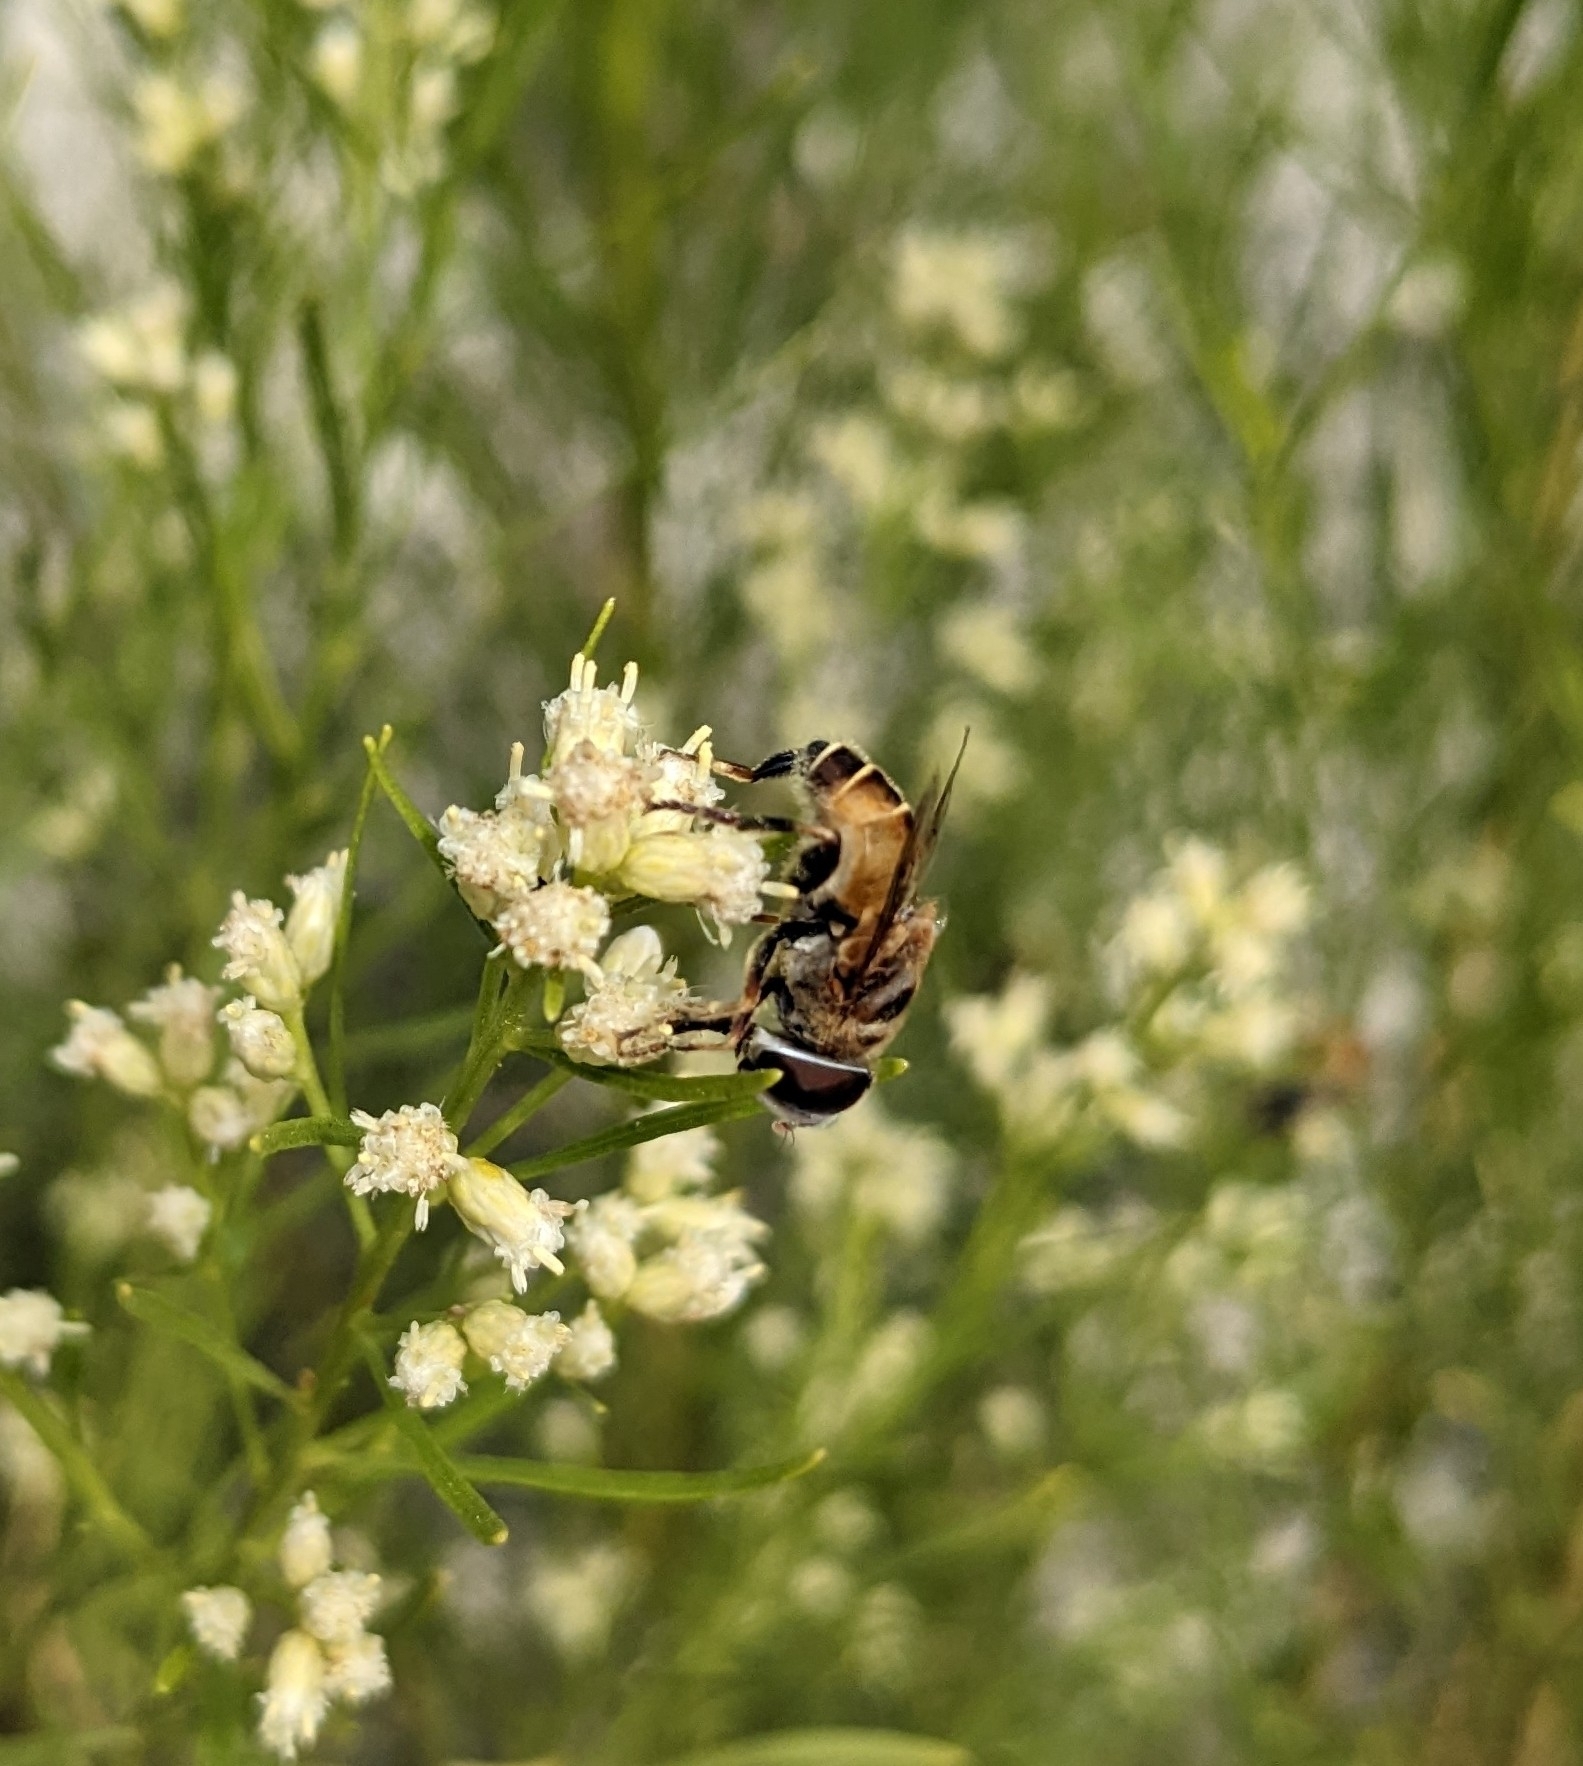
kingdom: Animalia
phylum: Arthropoda
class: Insecta
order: Diptera
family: Syrphidae
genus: Palpada
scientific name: Palpada vinetorum
